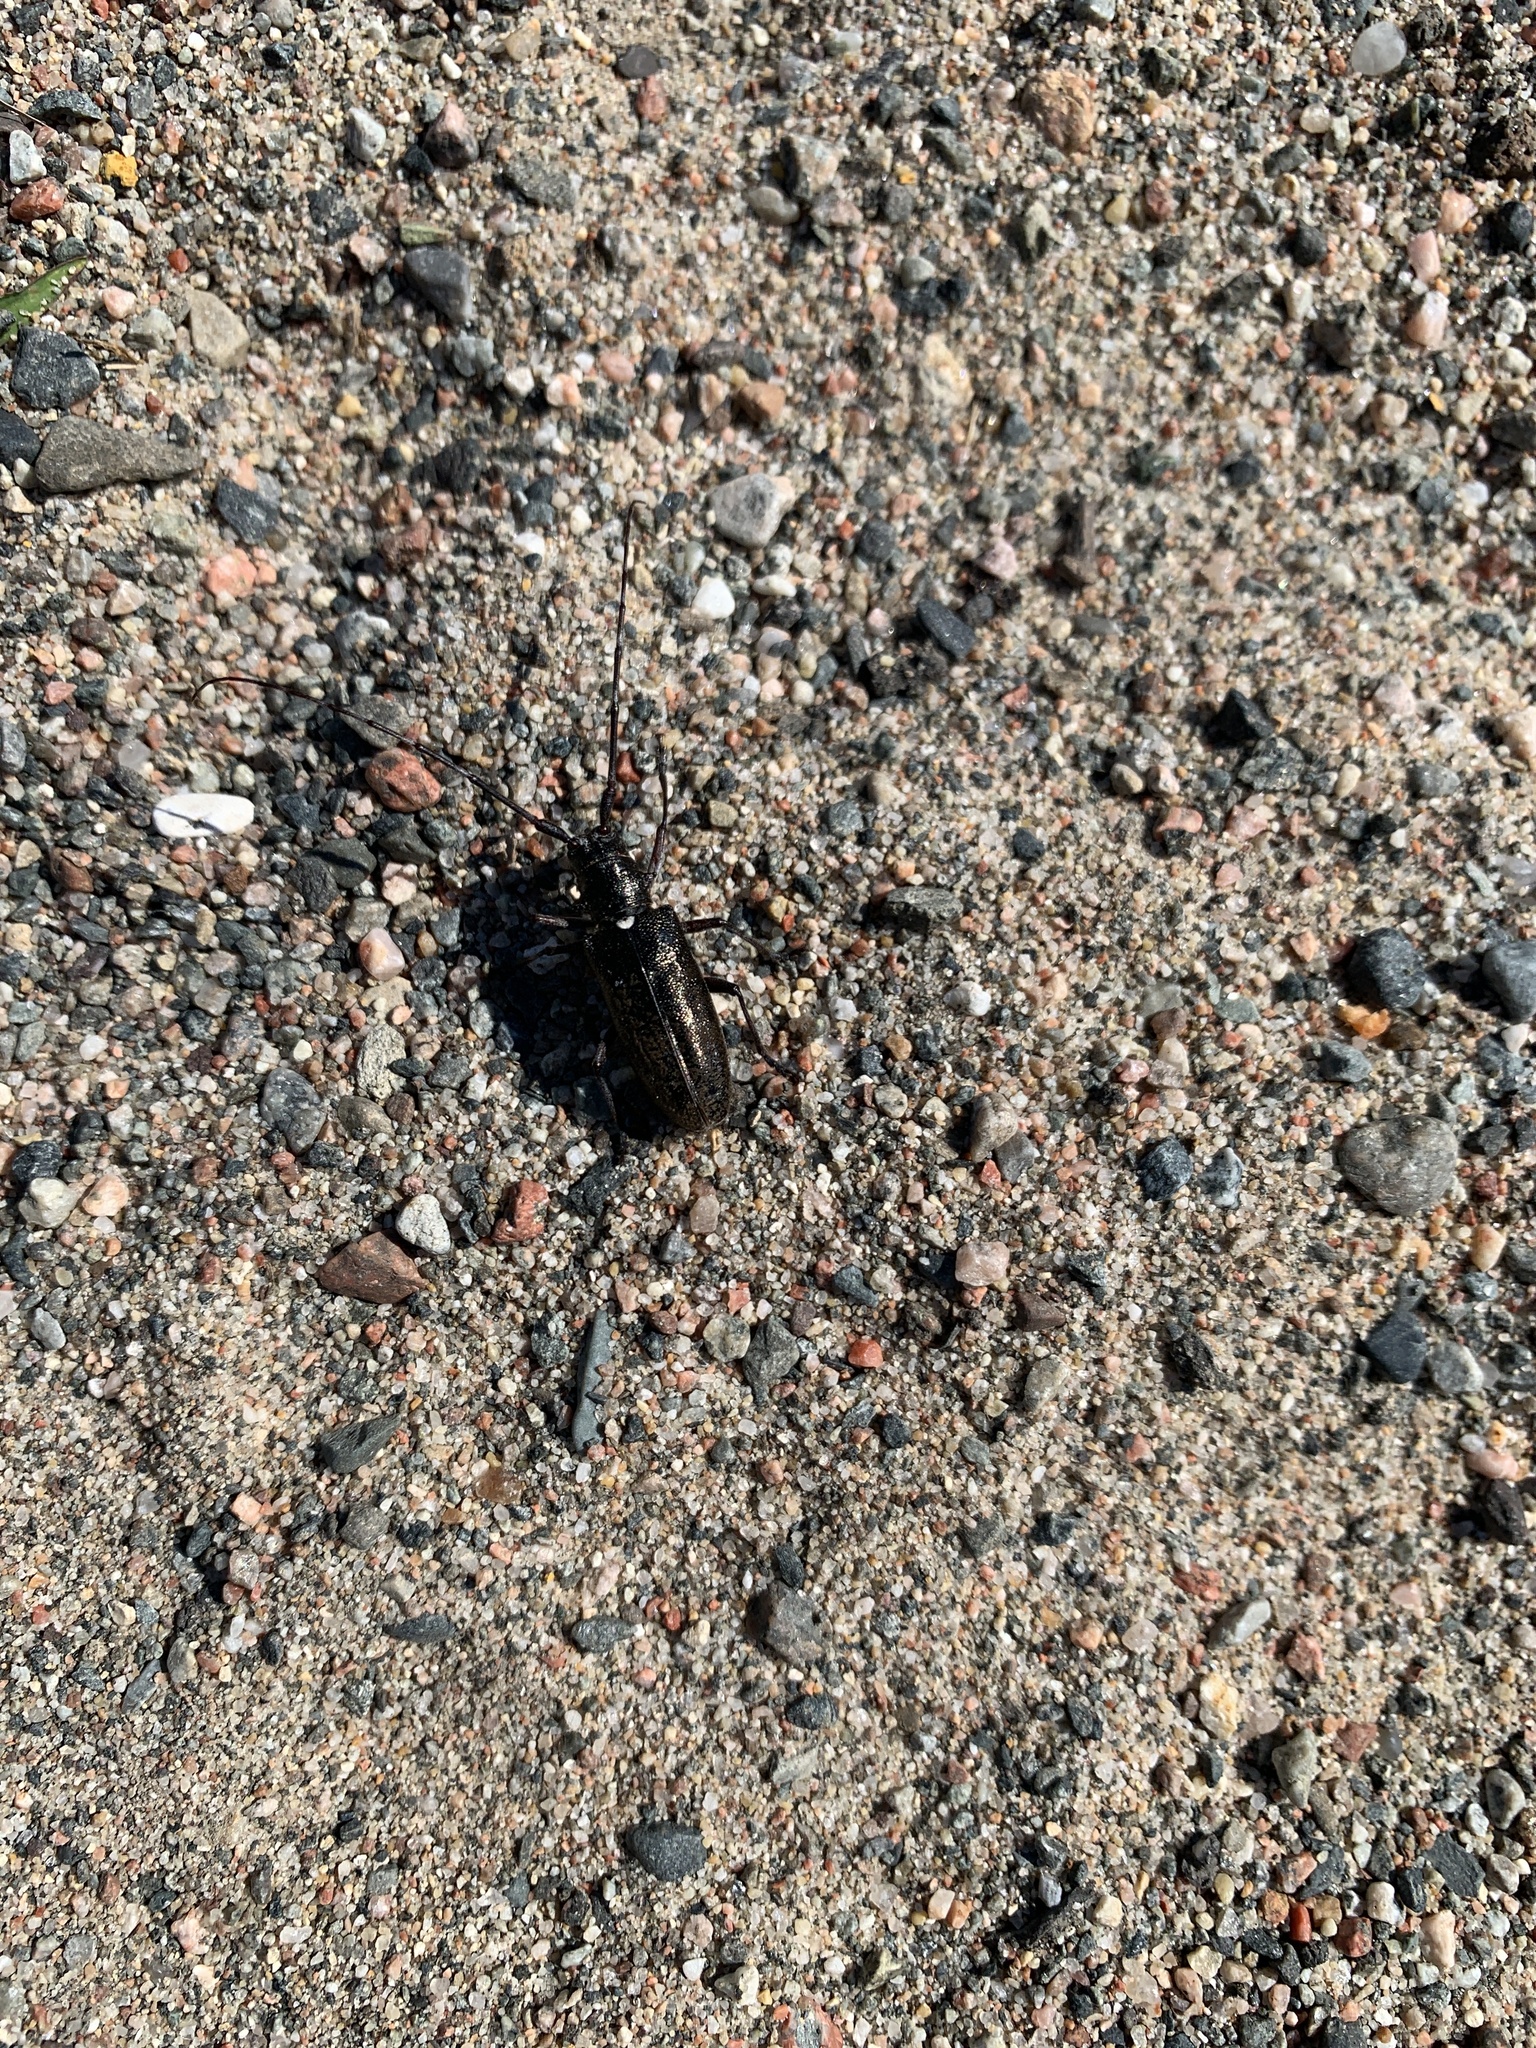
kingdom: Animalia
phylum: Arthropoda
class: Insecta
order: Coleoptera
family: Cerambycidae
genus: Monochamus
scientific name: Monochamus scutellatus
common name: White-spotted sawyer beetle
